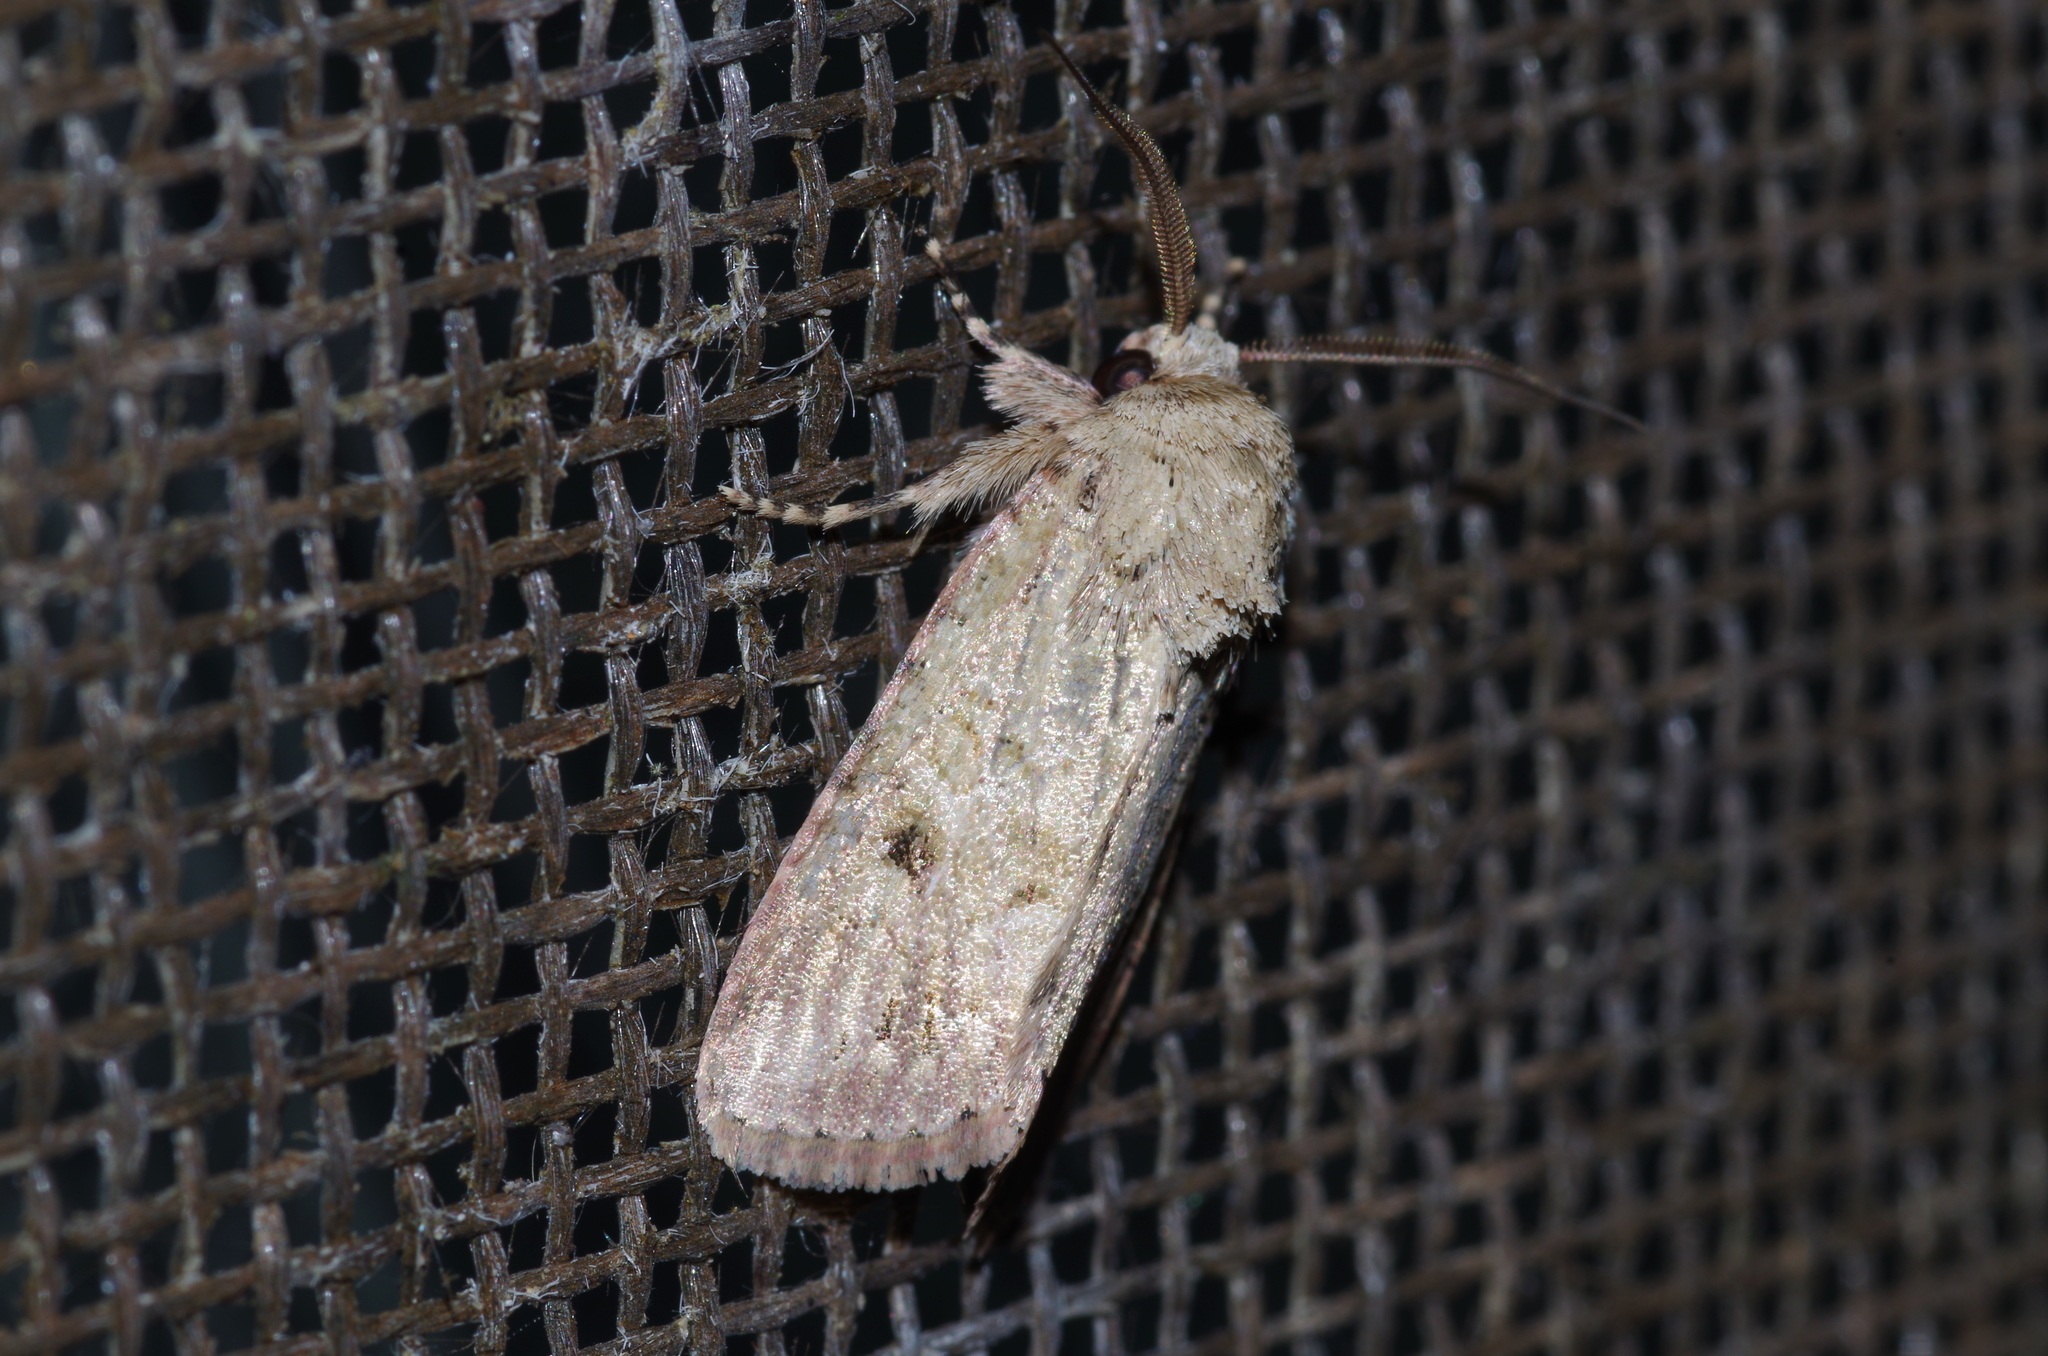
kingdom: Animalia
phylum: Arthropoda
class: Insecta
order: Lepidoptera
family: Noctuidae
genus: Spodoptera
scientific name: Spodoptera pecten
